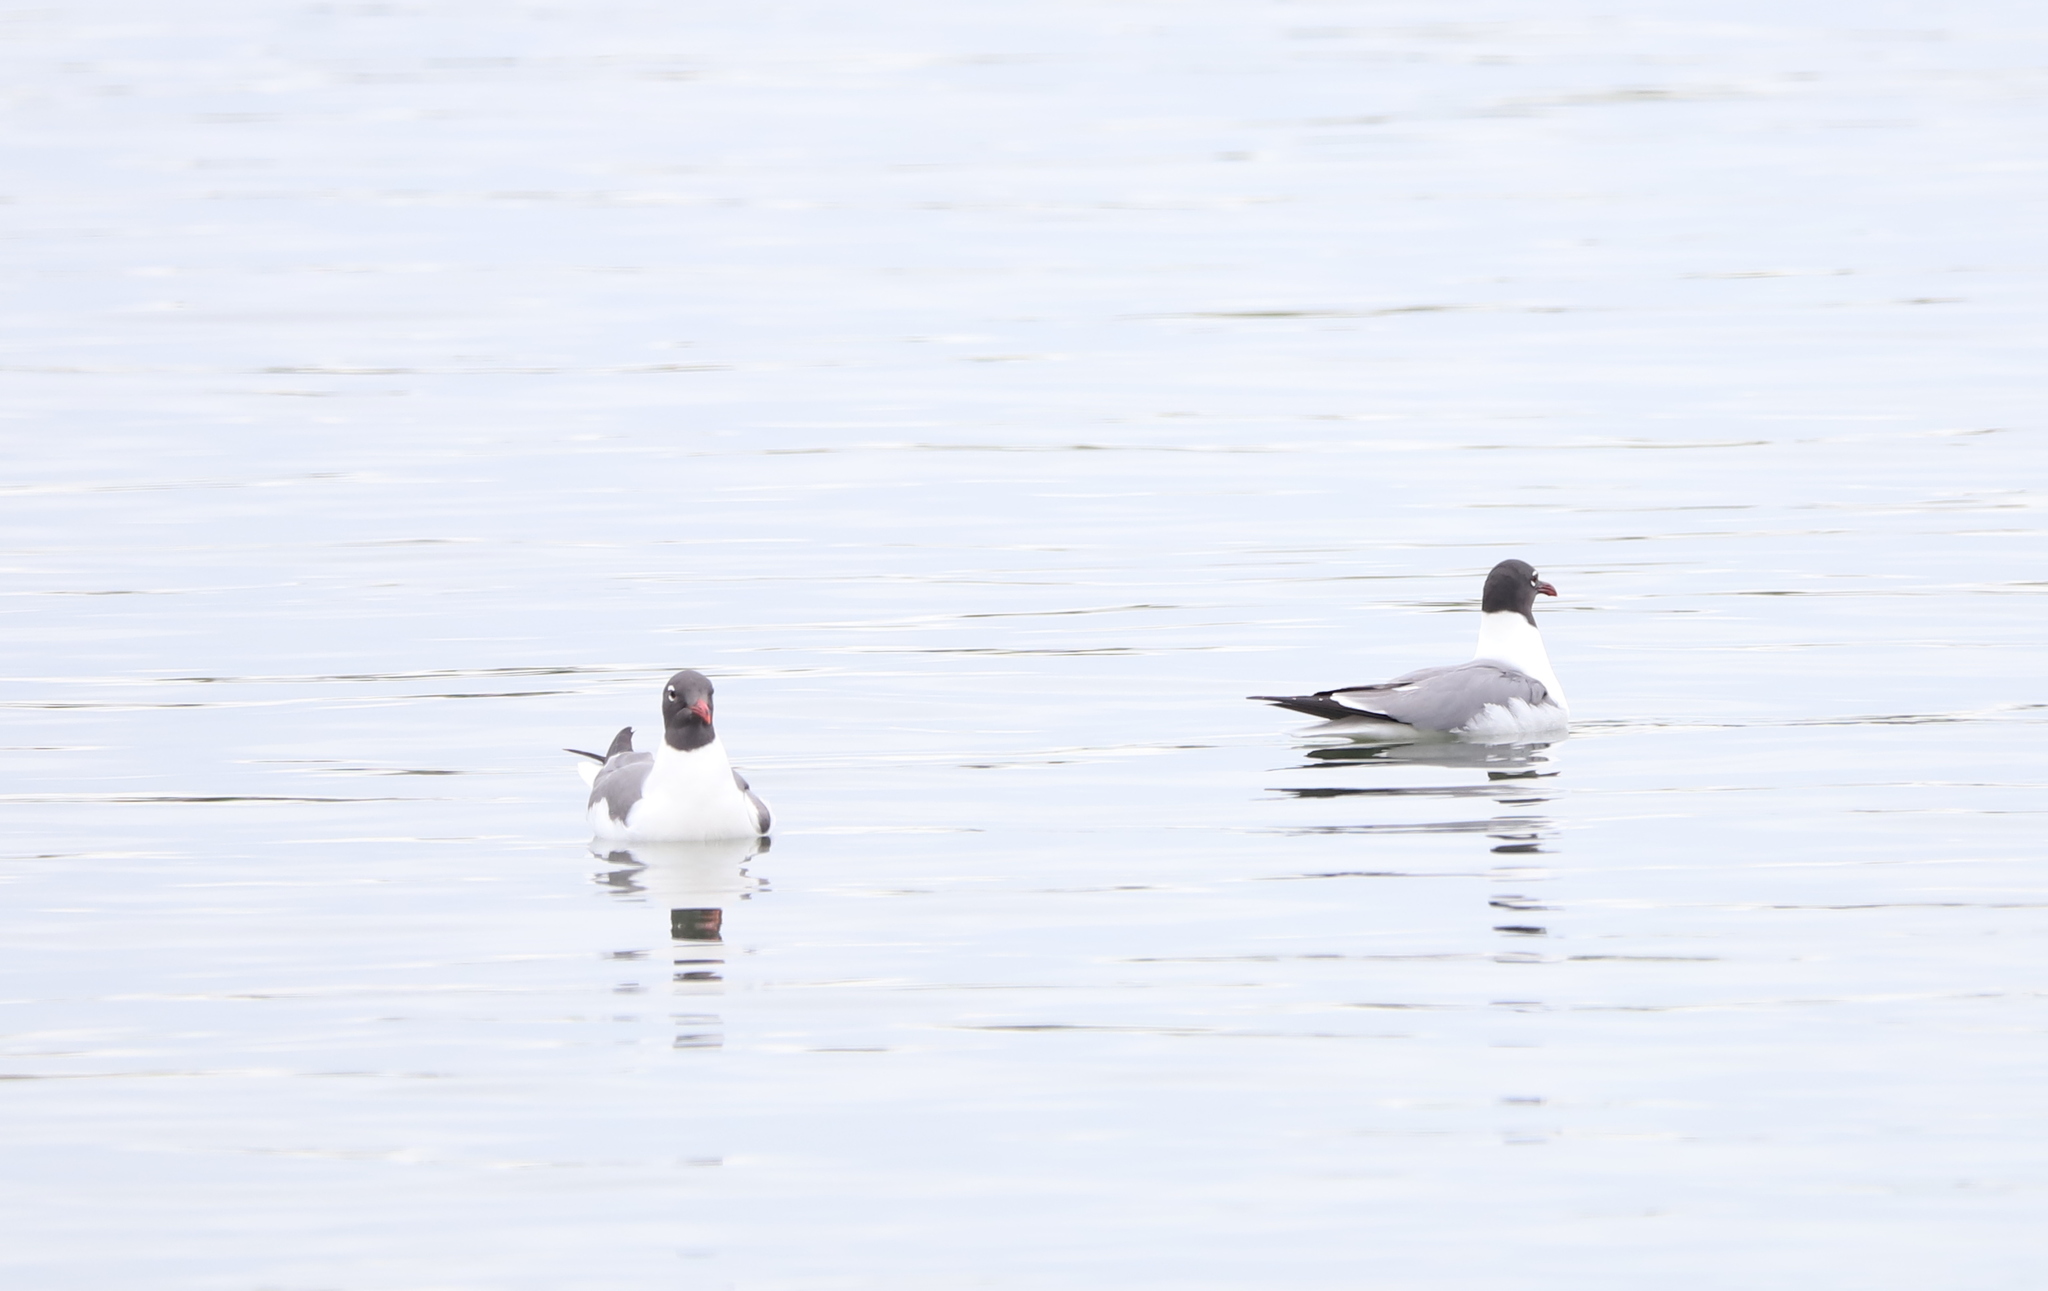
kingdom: Animalia
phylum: Chordata
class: Aves
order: Charadriiformes
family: Laridae
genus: Leucophaeus
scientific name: Leucophaeus atricilla
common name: Laughing gull
